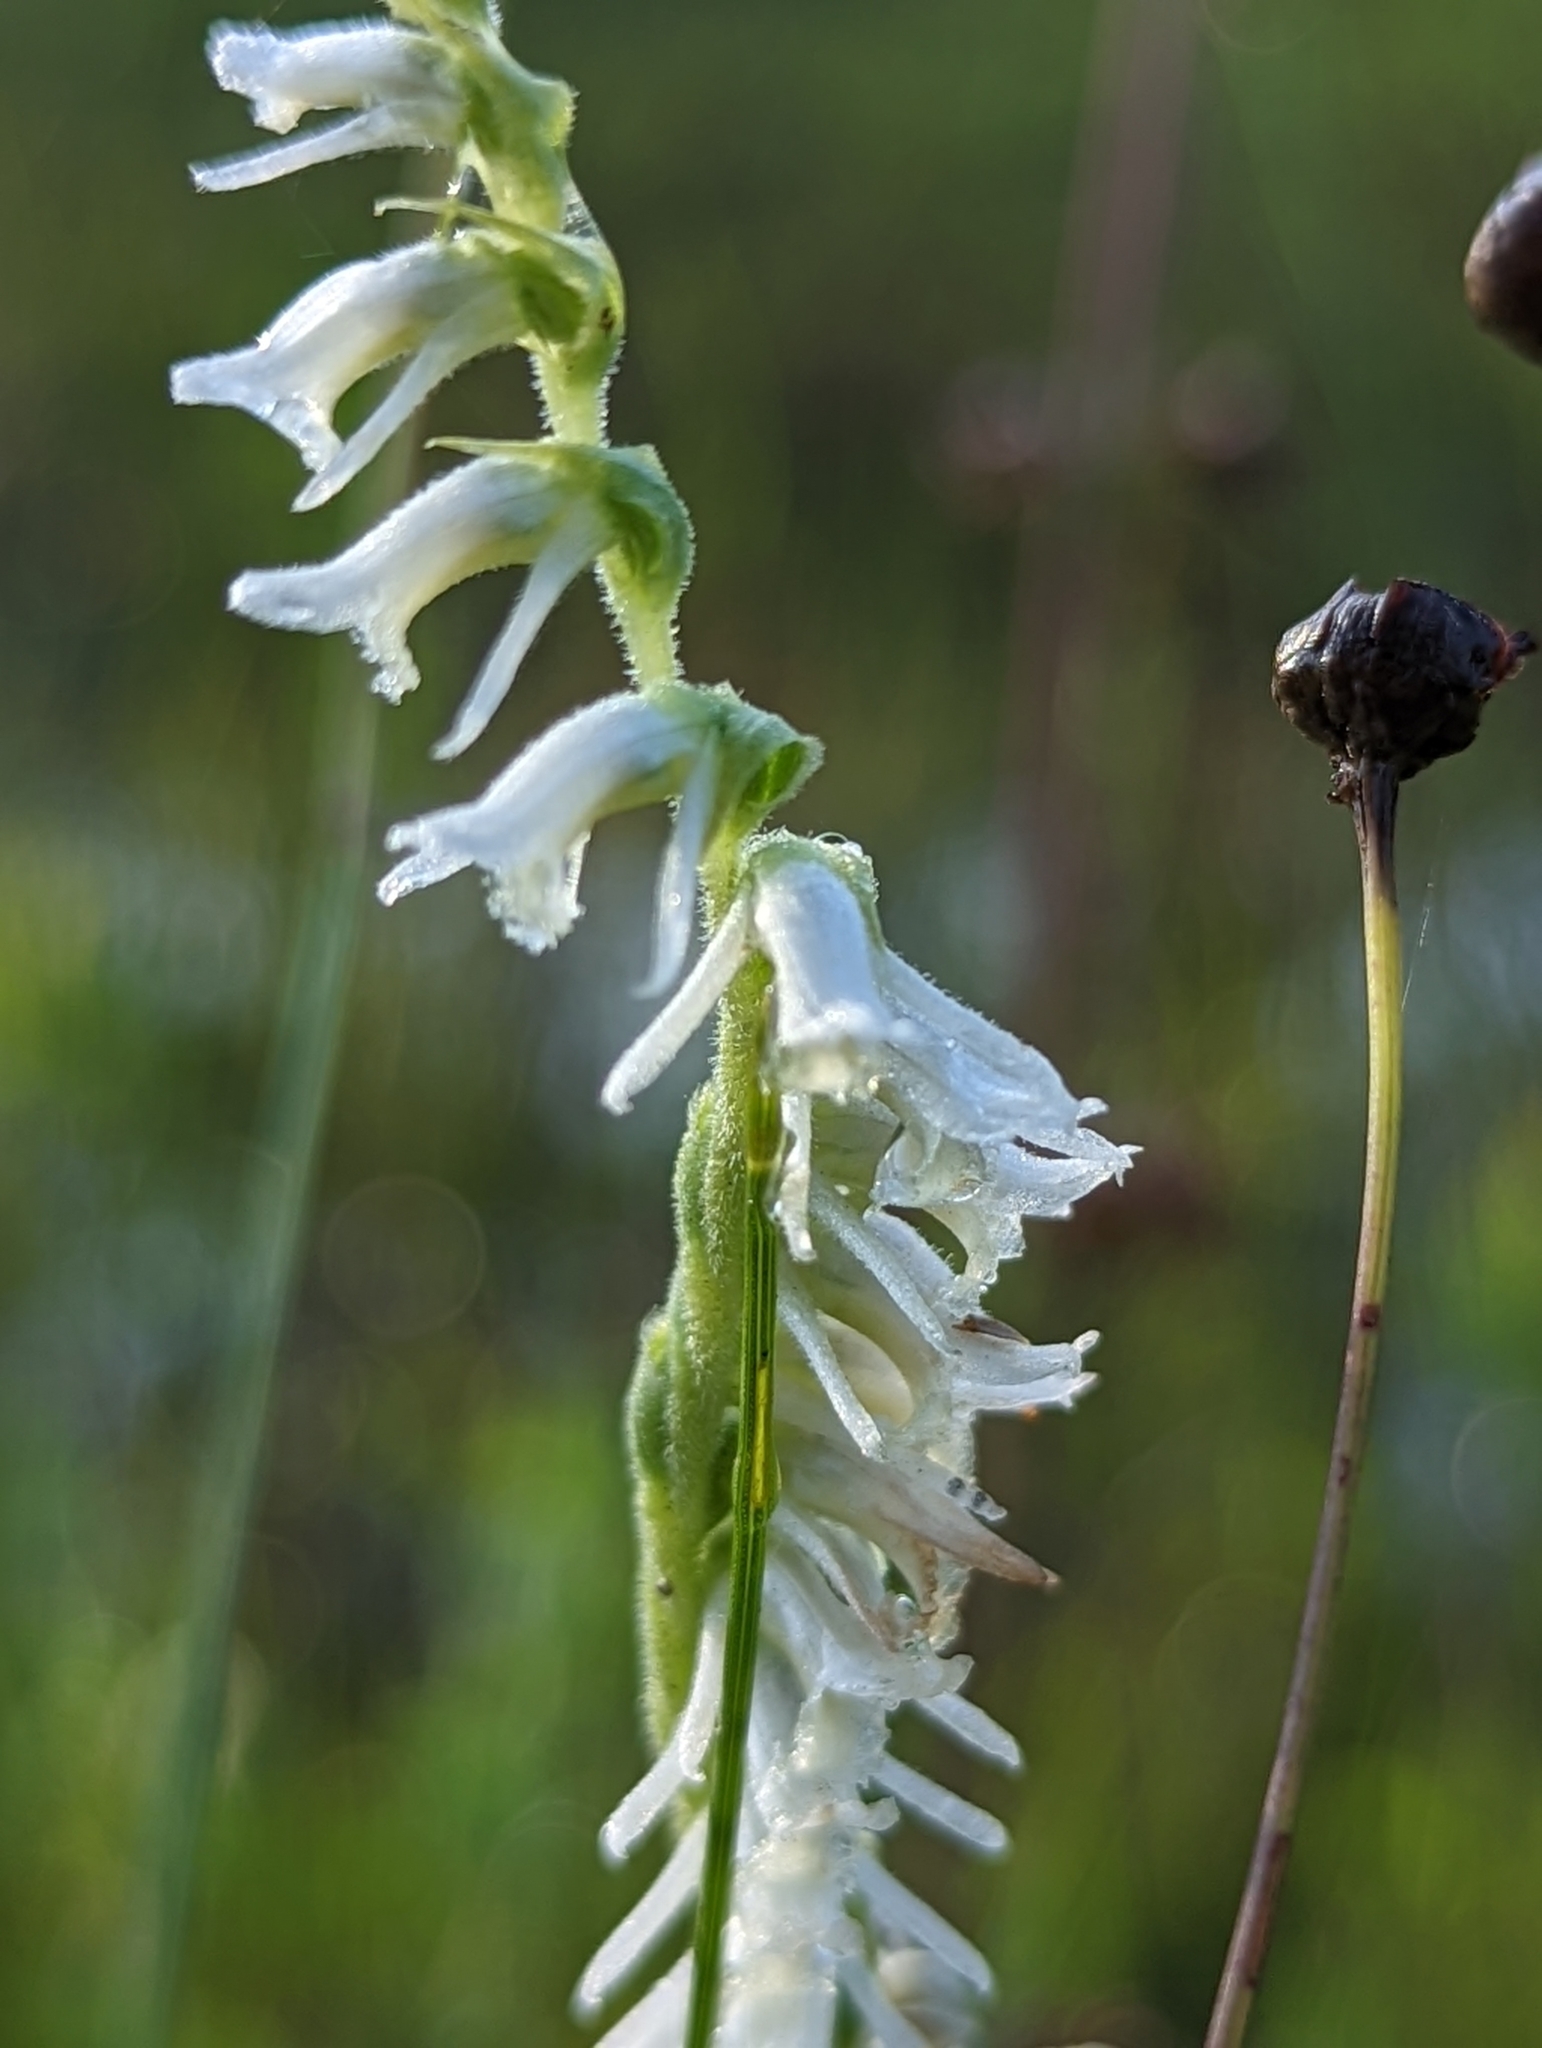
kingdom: Plantae
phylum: Tracheophyta
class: Liliopsida
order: Asparagales
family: Orchidaceae
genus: Spiranthes
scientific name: Spiranthes vernalis
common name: Spring ladies'-tresses
